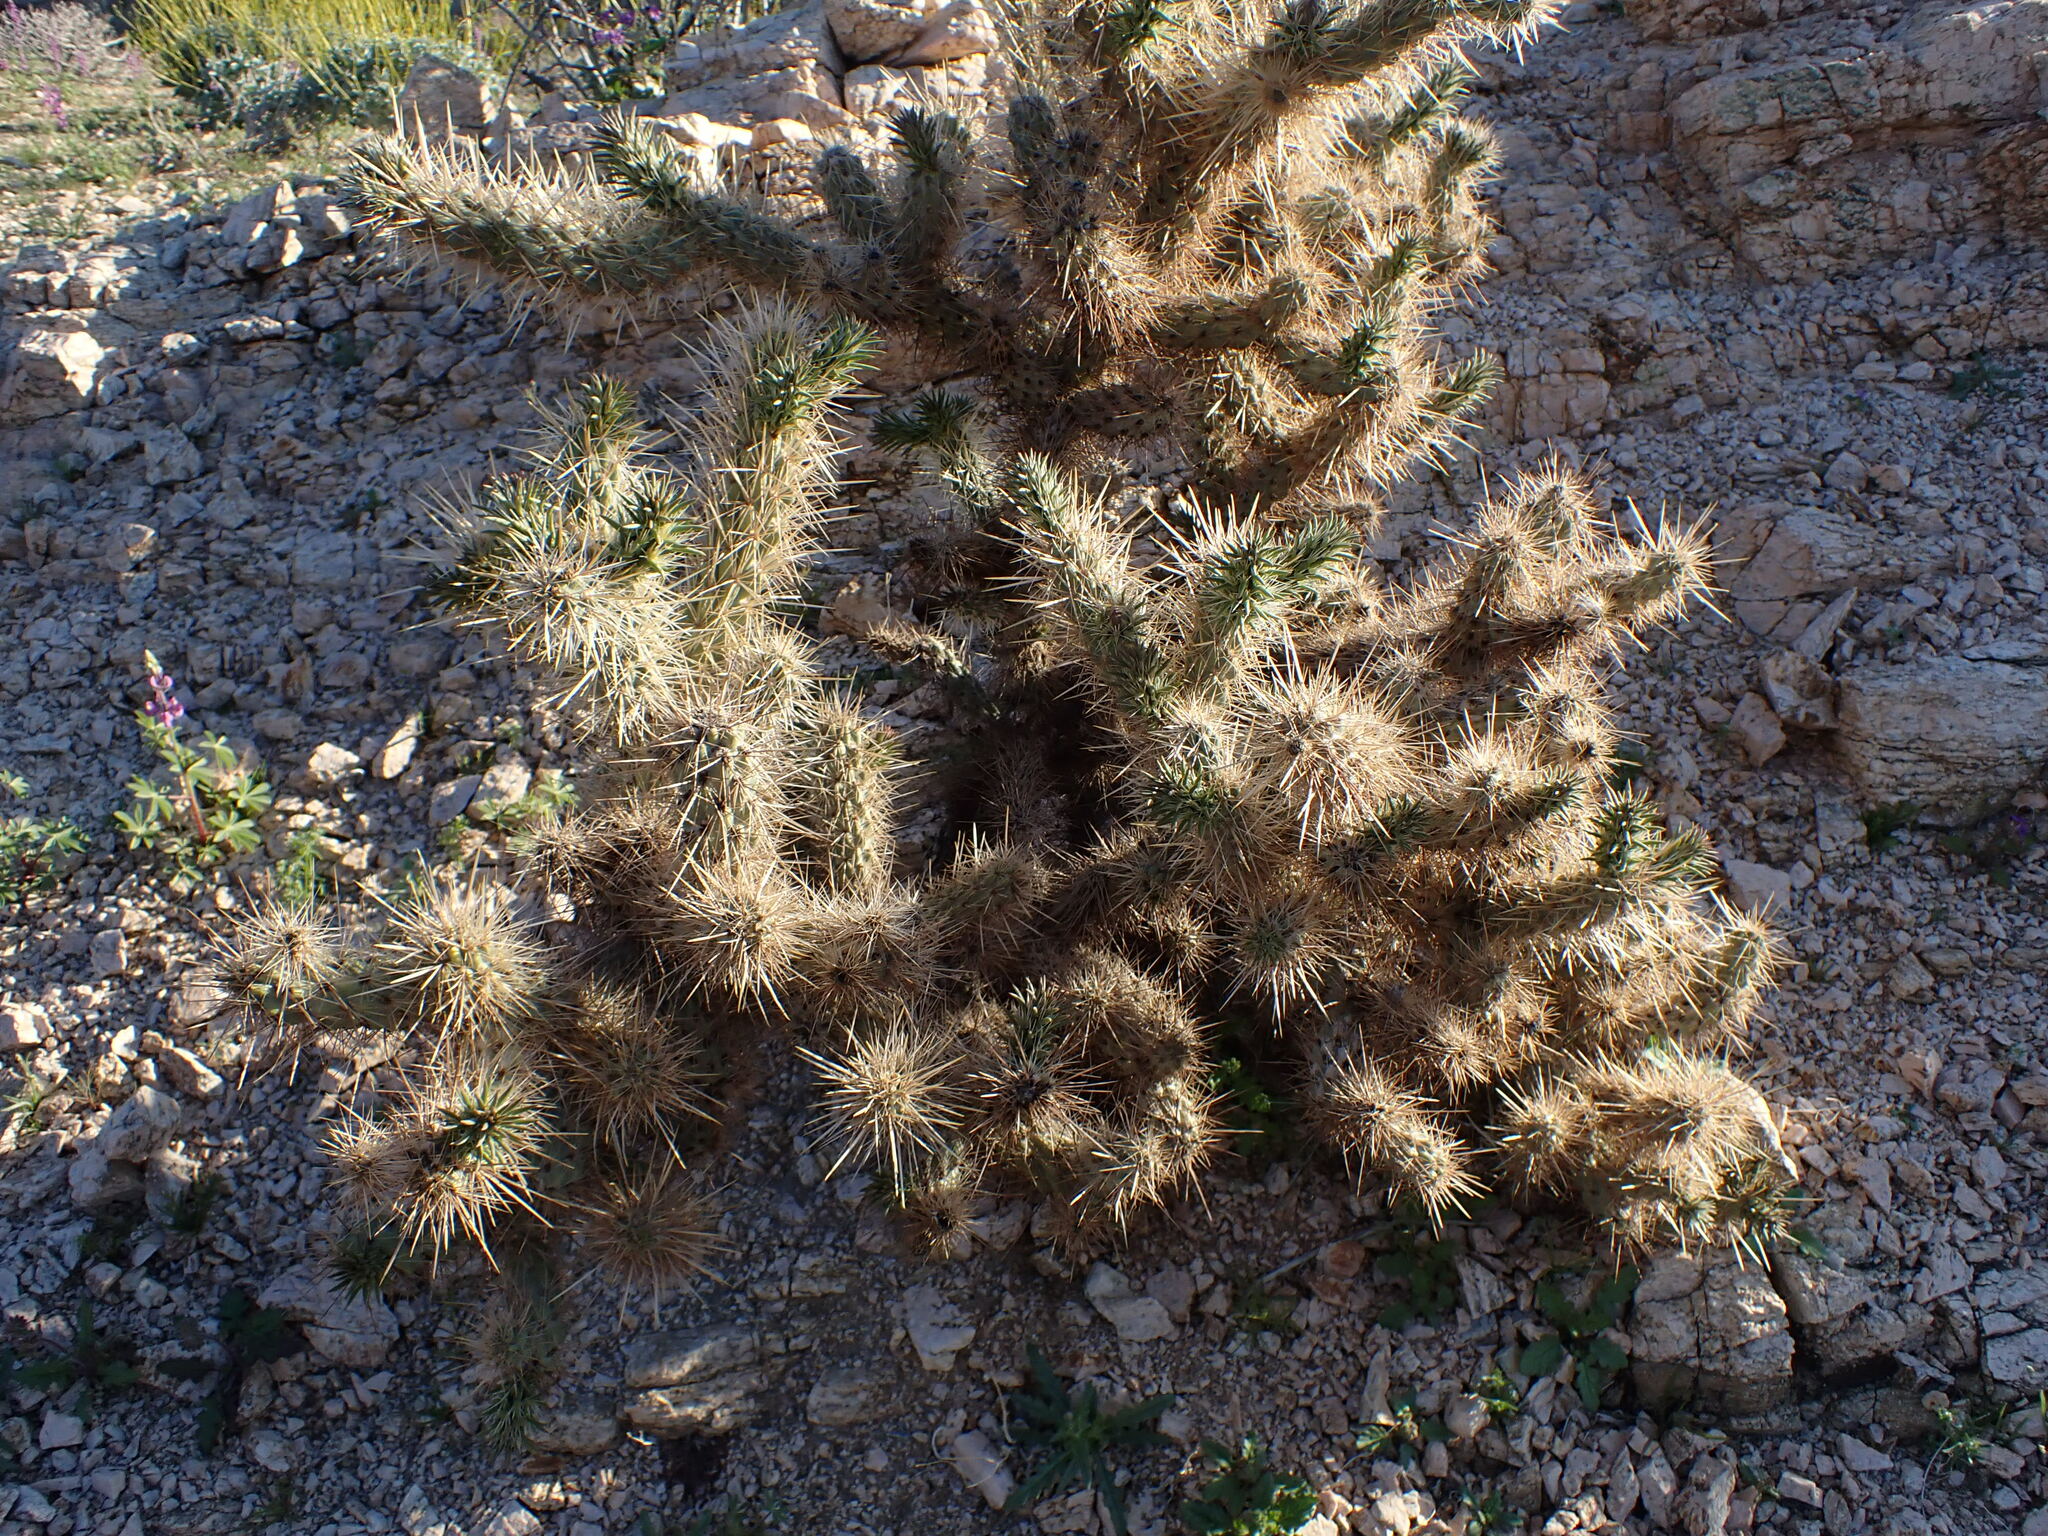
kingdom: Plantae
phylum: Tracheophyta
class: Magnoliopsida
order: Caryophyllales
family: Cactaceae
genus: Cylindropuntia
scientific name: Cylindropuntia echinocarpa
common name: Ground cholla
